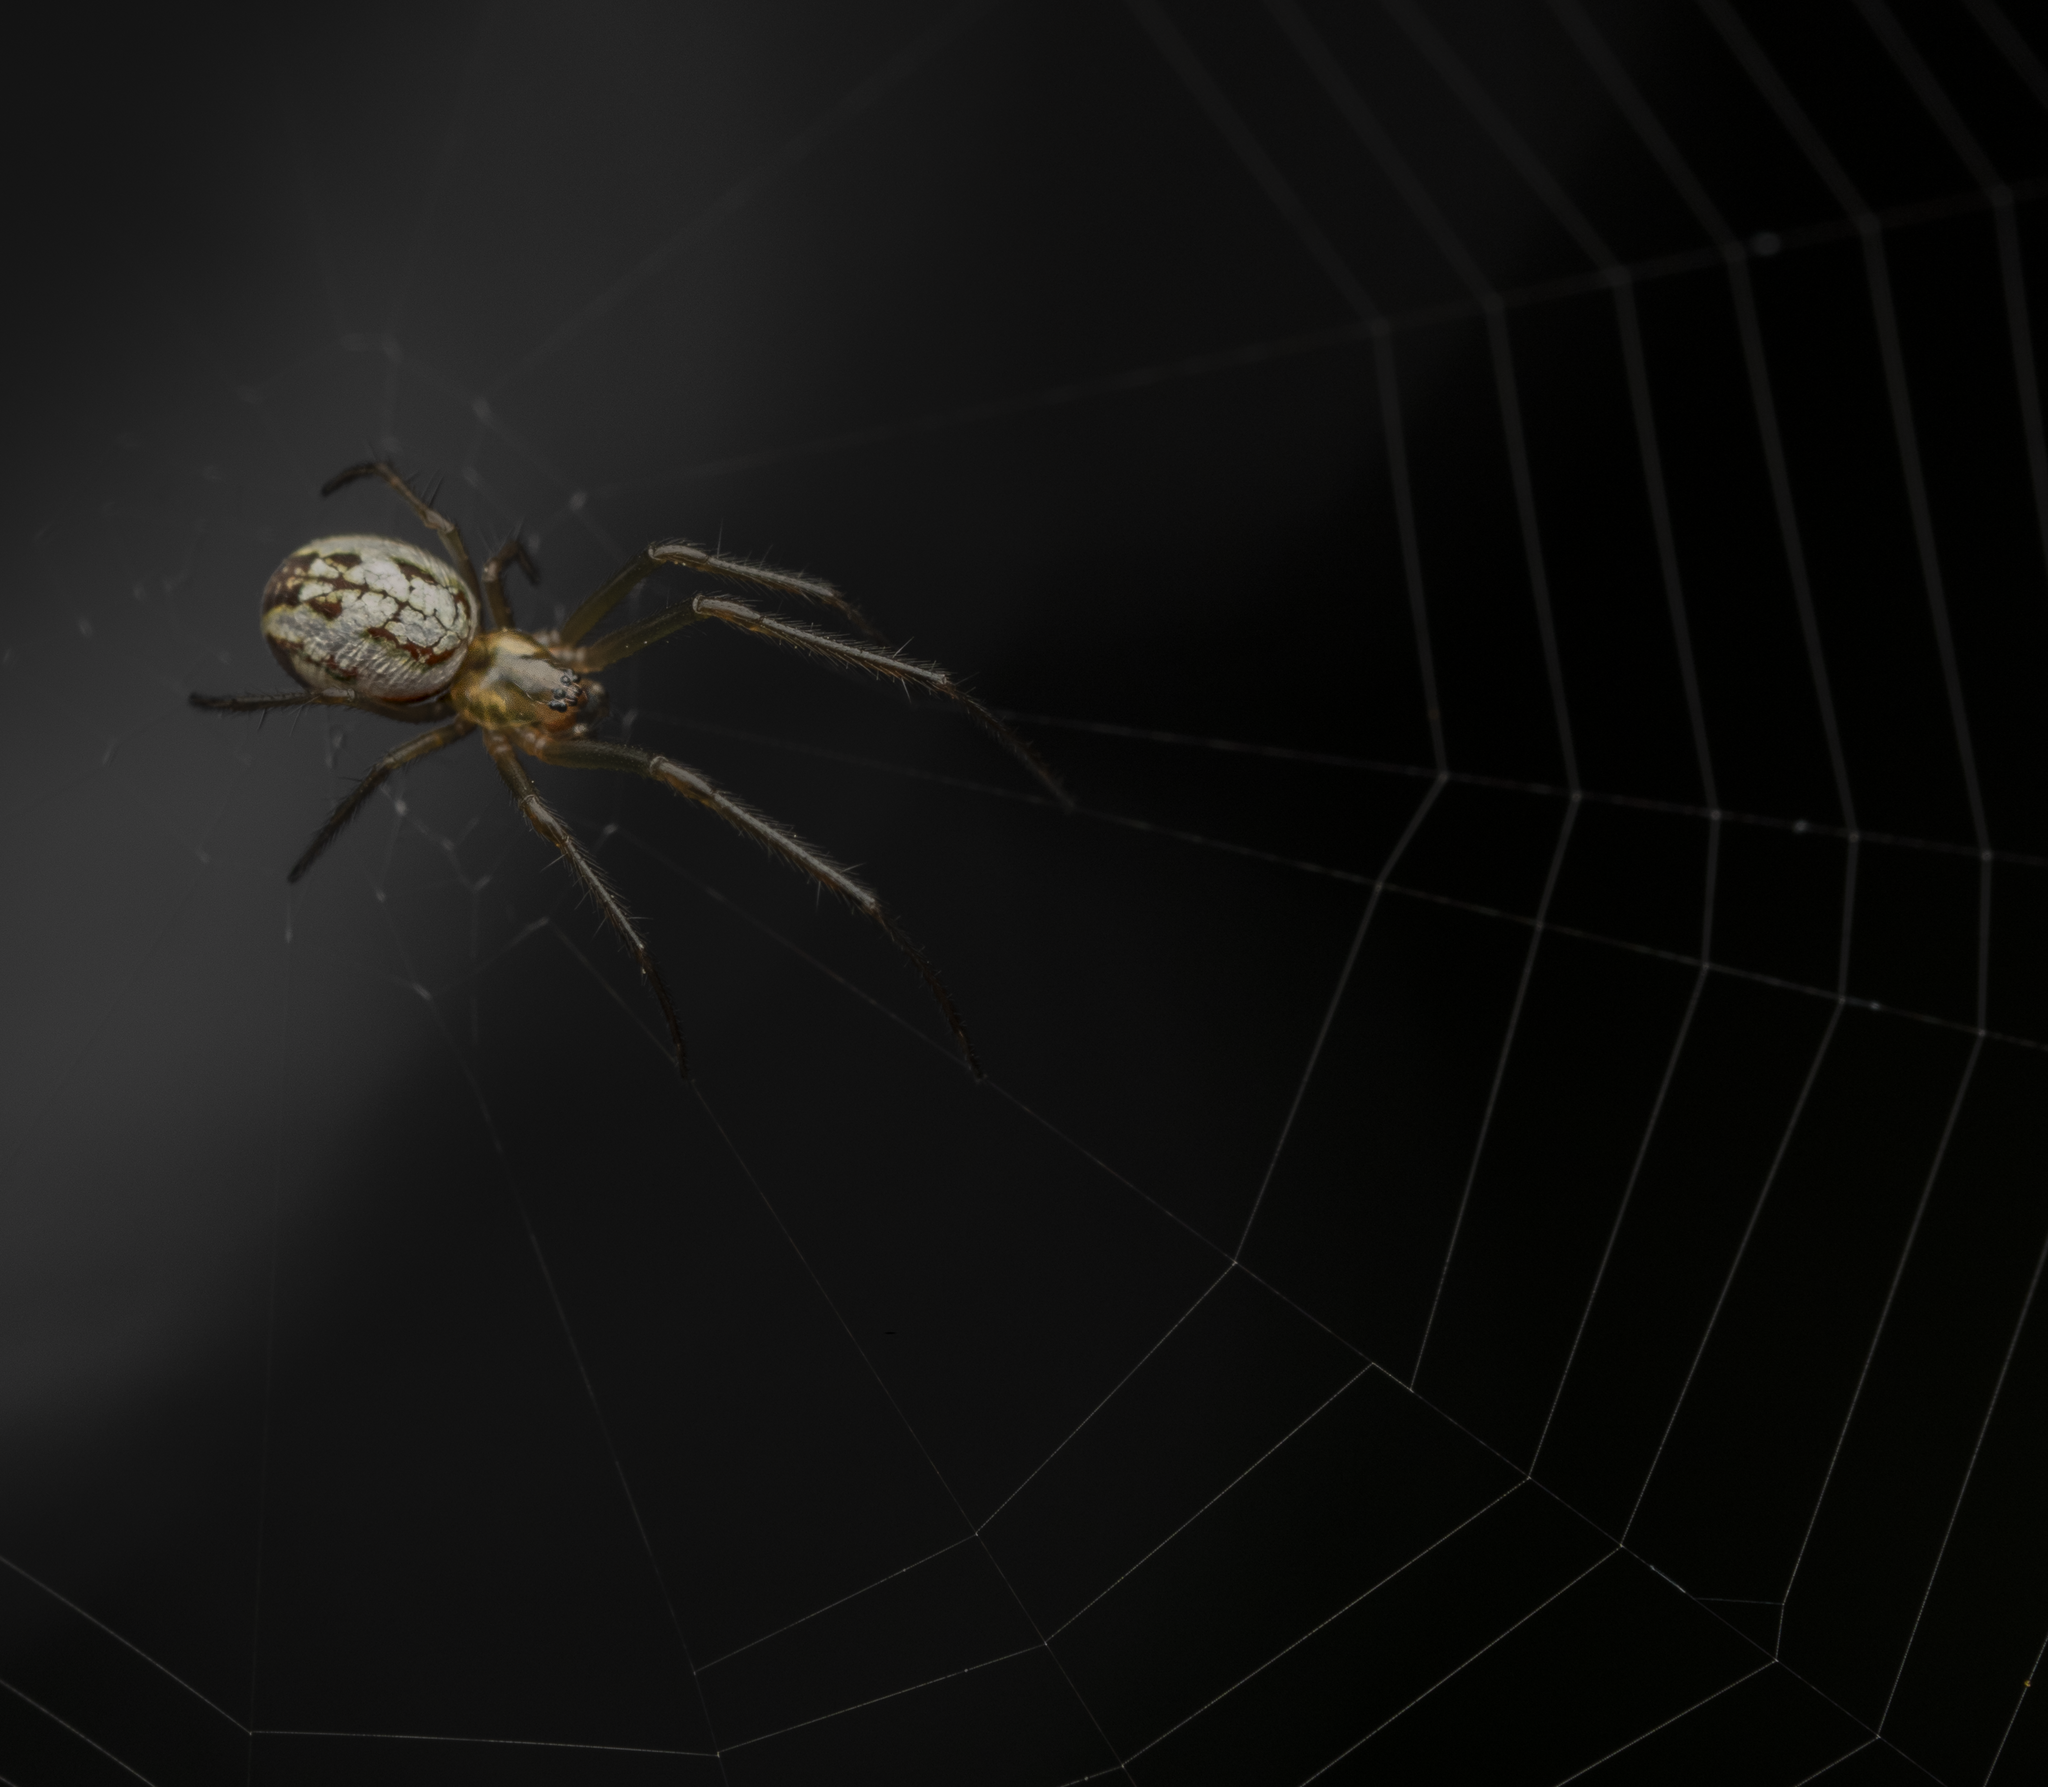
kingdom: Animalia
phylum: Arthropoda
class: Arachnida
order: Araneae
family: Tetragnathidae
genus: Nanometa
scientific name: Nanometa forsteri
